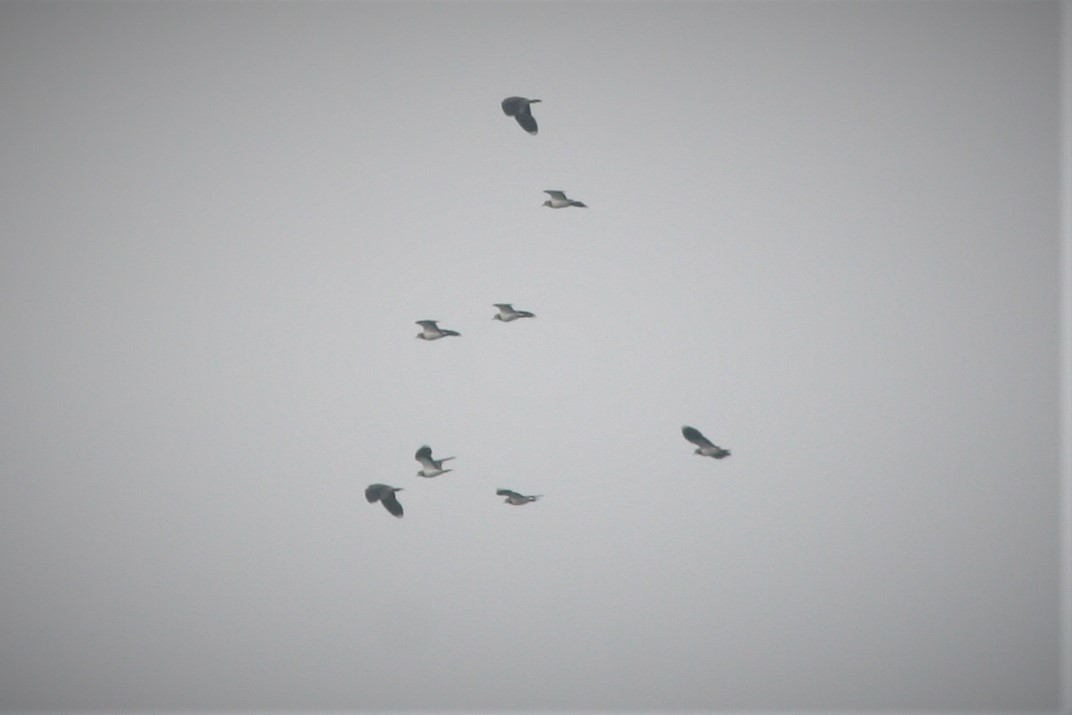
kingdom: Animalia
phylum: Chordata
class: Aves
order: Charadriiformes
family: Charadriidae
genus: Vanellus
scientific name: Vanellus vanellus
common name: Northern lapwing
